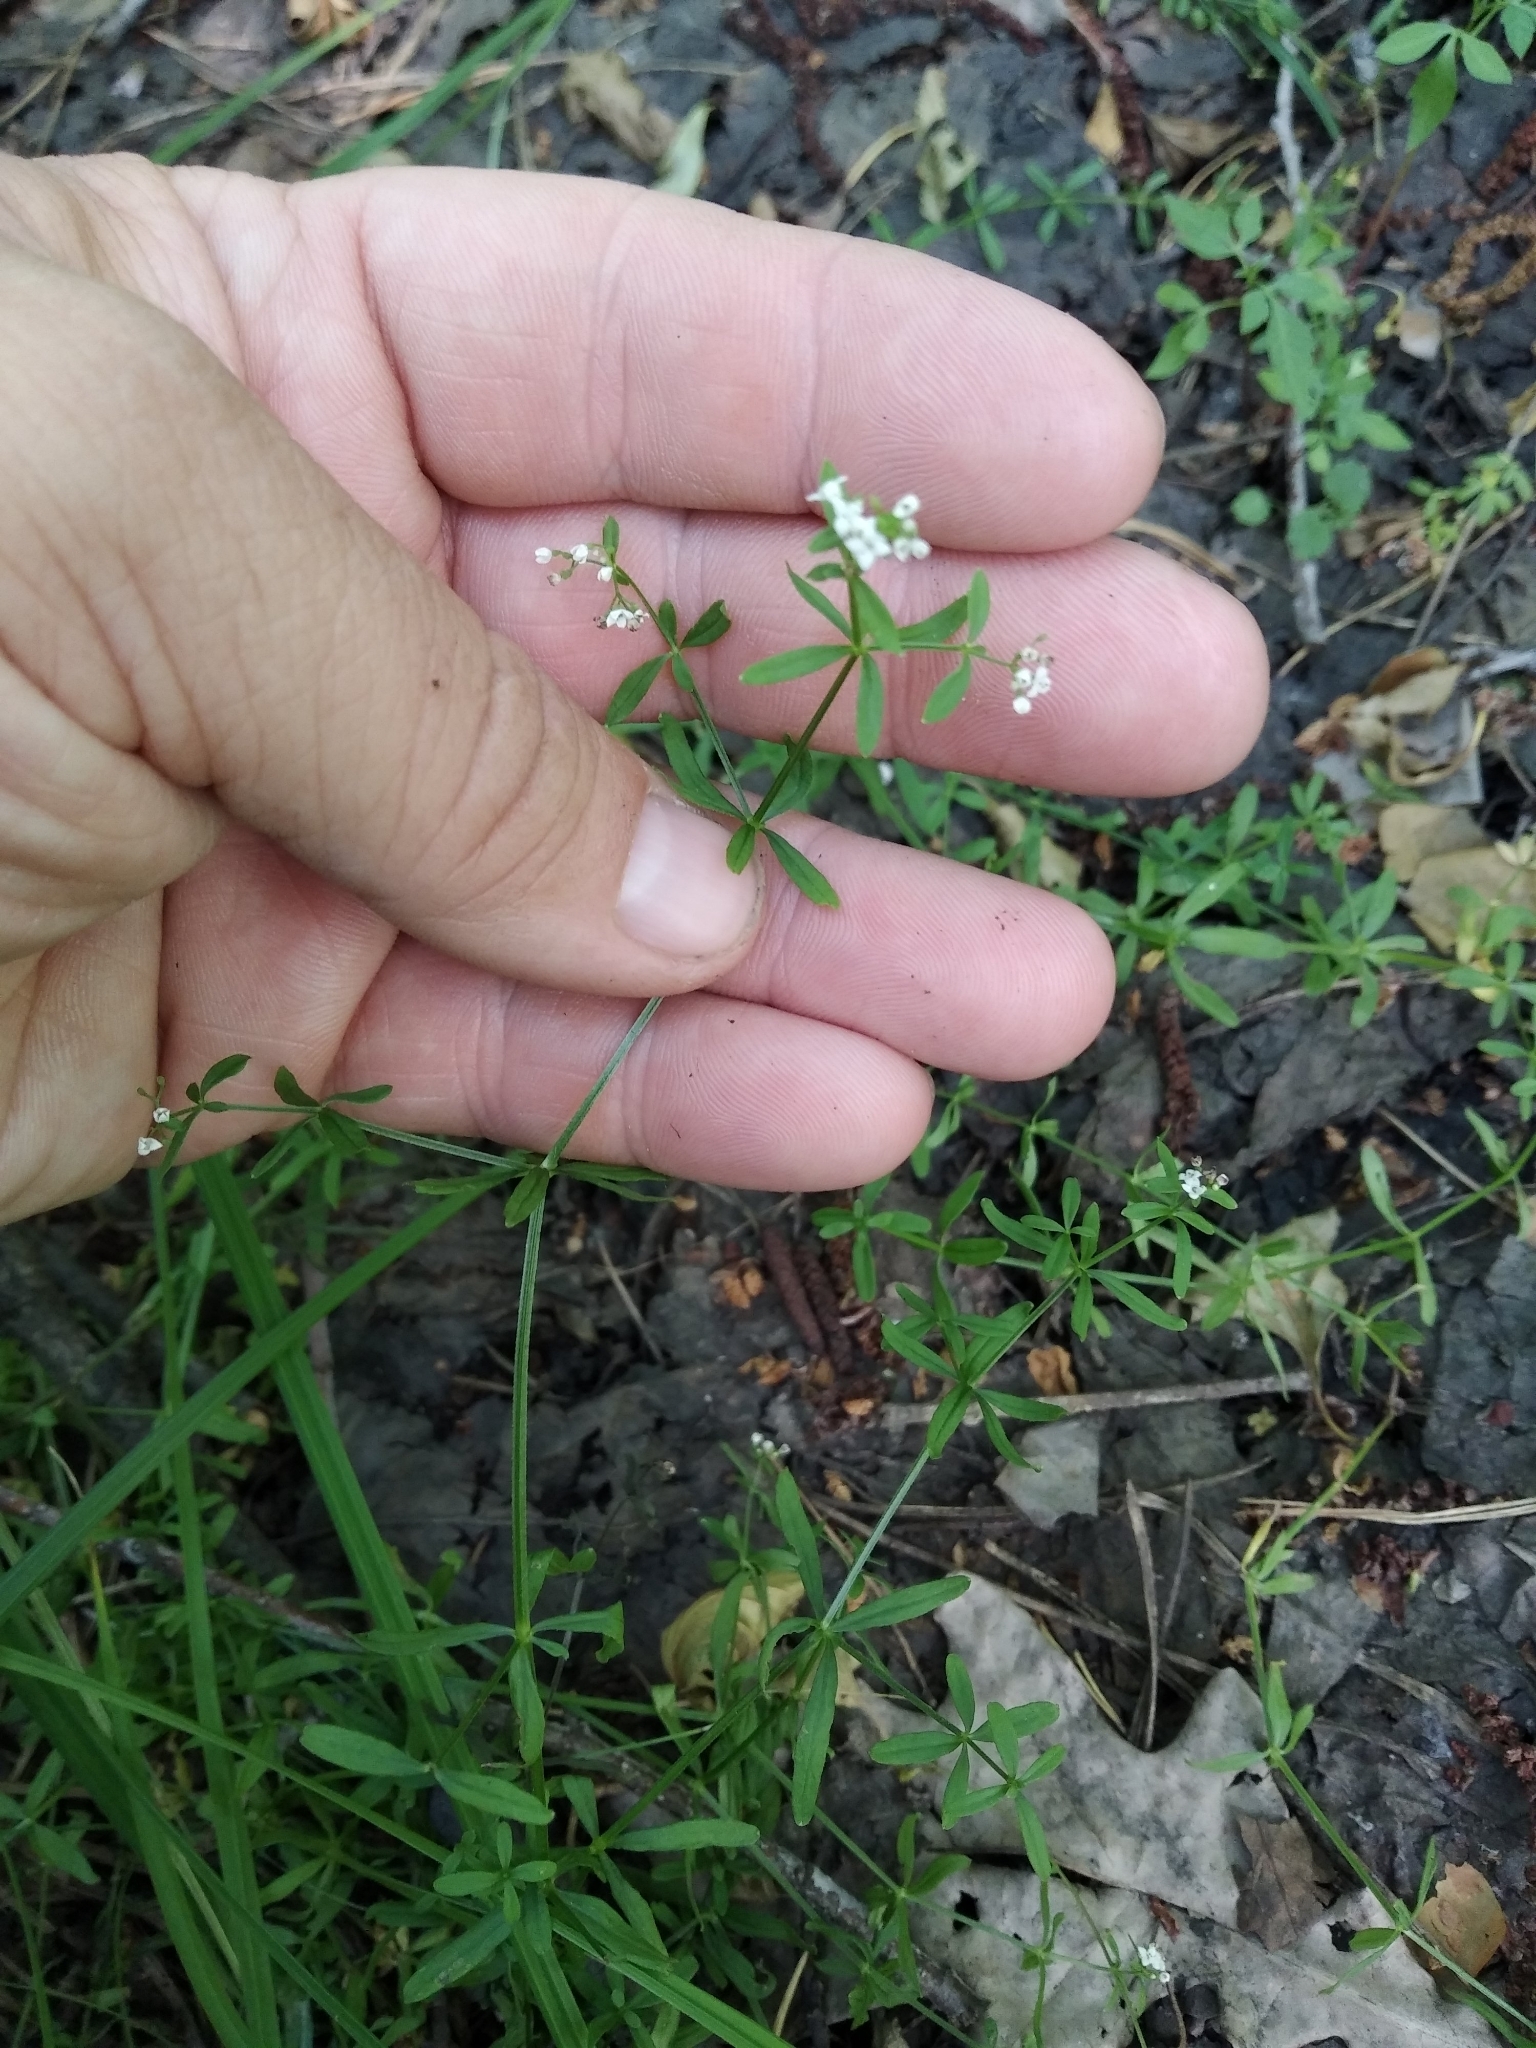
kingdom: Plantae
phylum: Tracheophyta
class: Magnoliopsida
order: Gentianales
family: Rubiaceae
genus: Galium
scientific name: Galium palustre
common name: Common marsh-bedstraw
